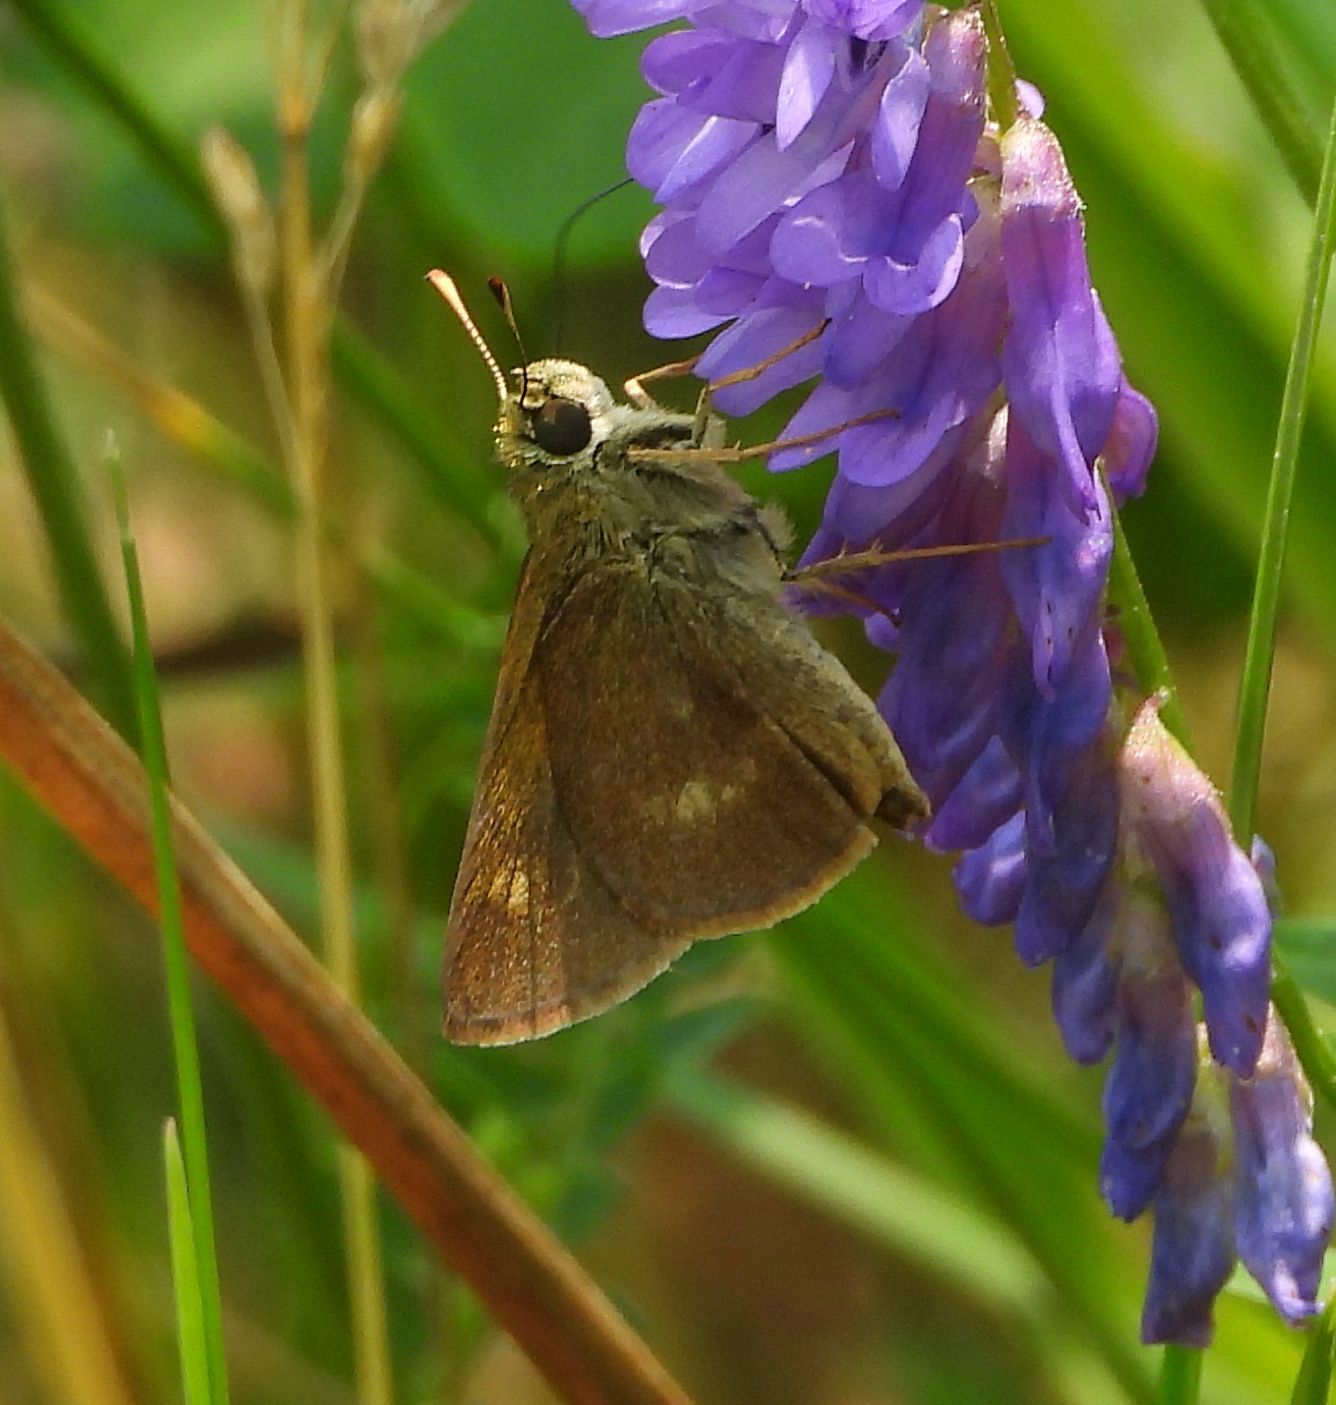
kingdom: Animalia
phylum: Arthropoda
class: Insecta
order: Lepidoptera
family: Hesperiidae
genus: Polites
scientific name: Polites egeremet
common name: Northern broken-dash
